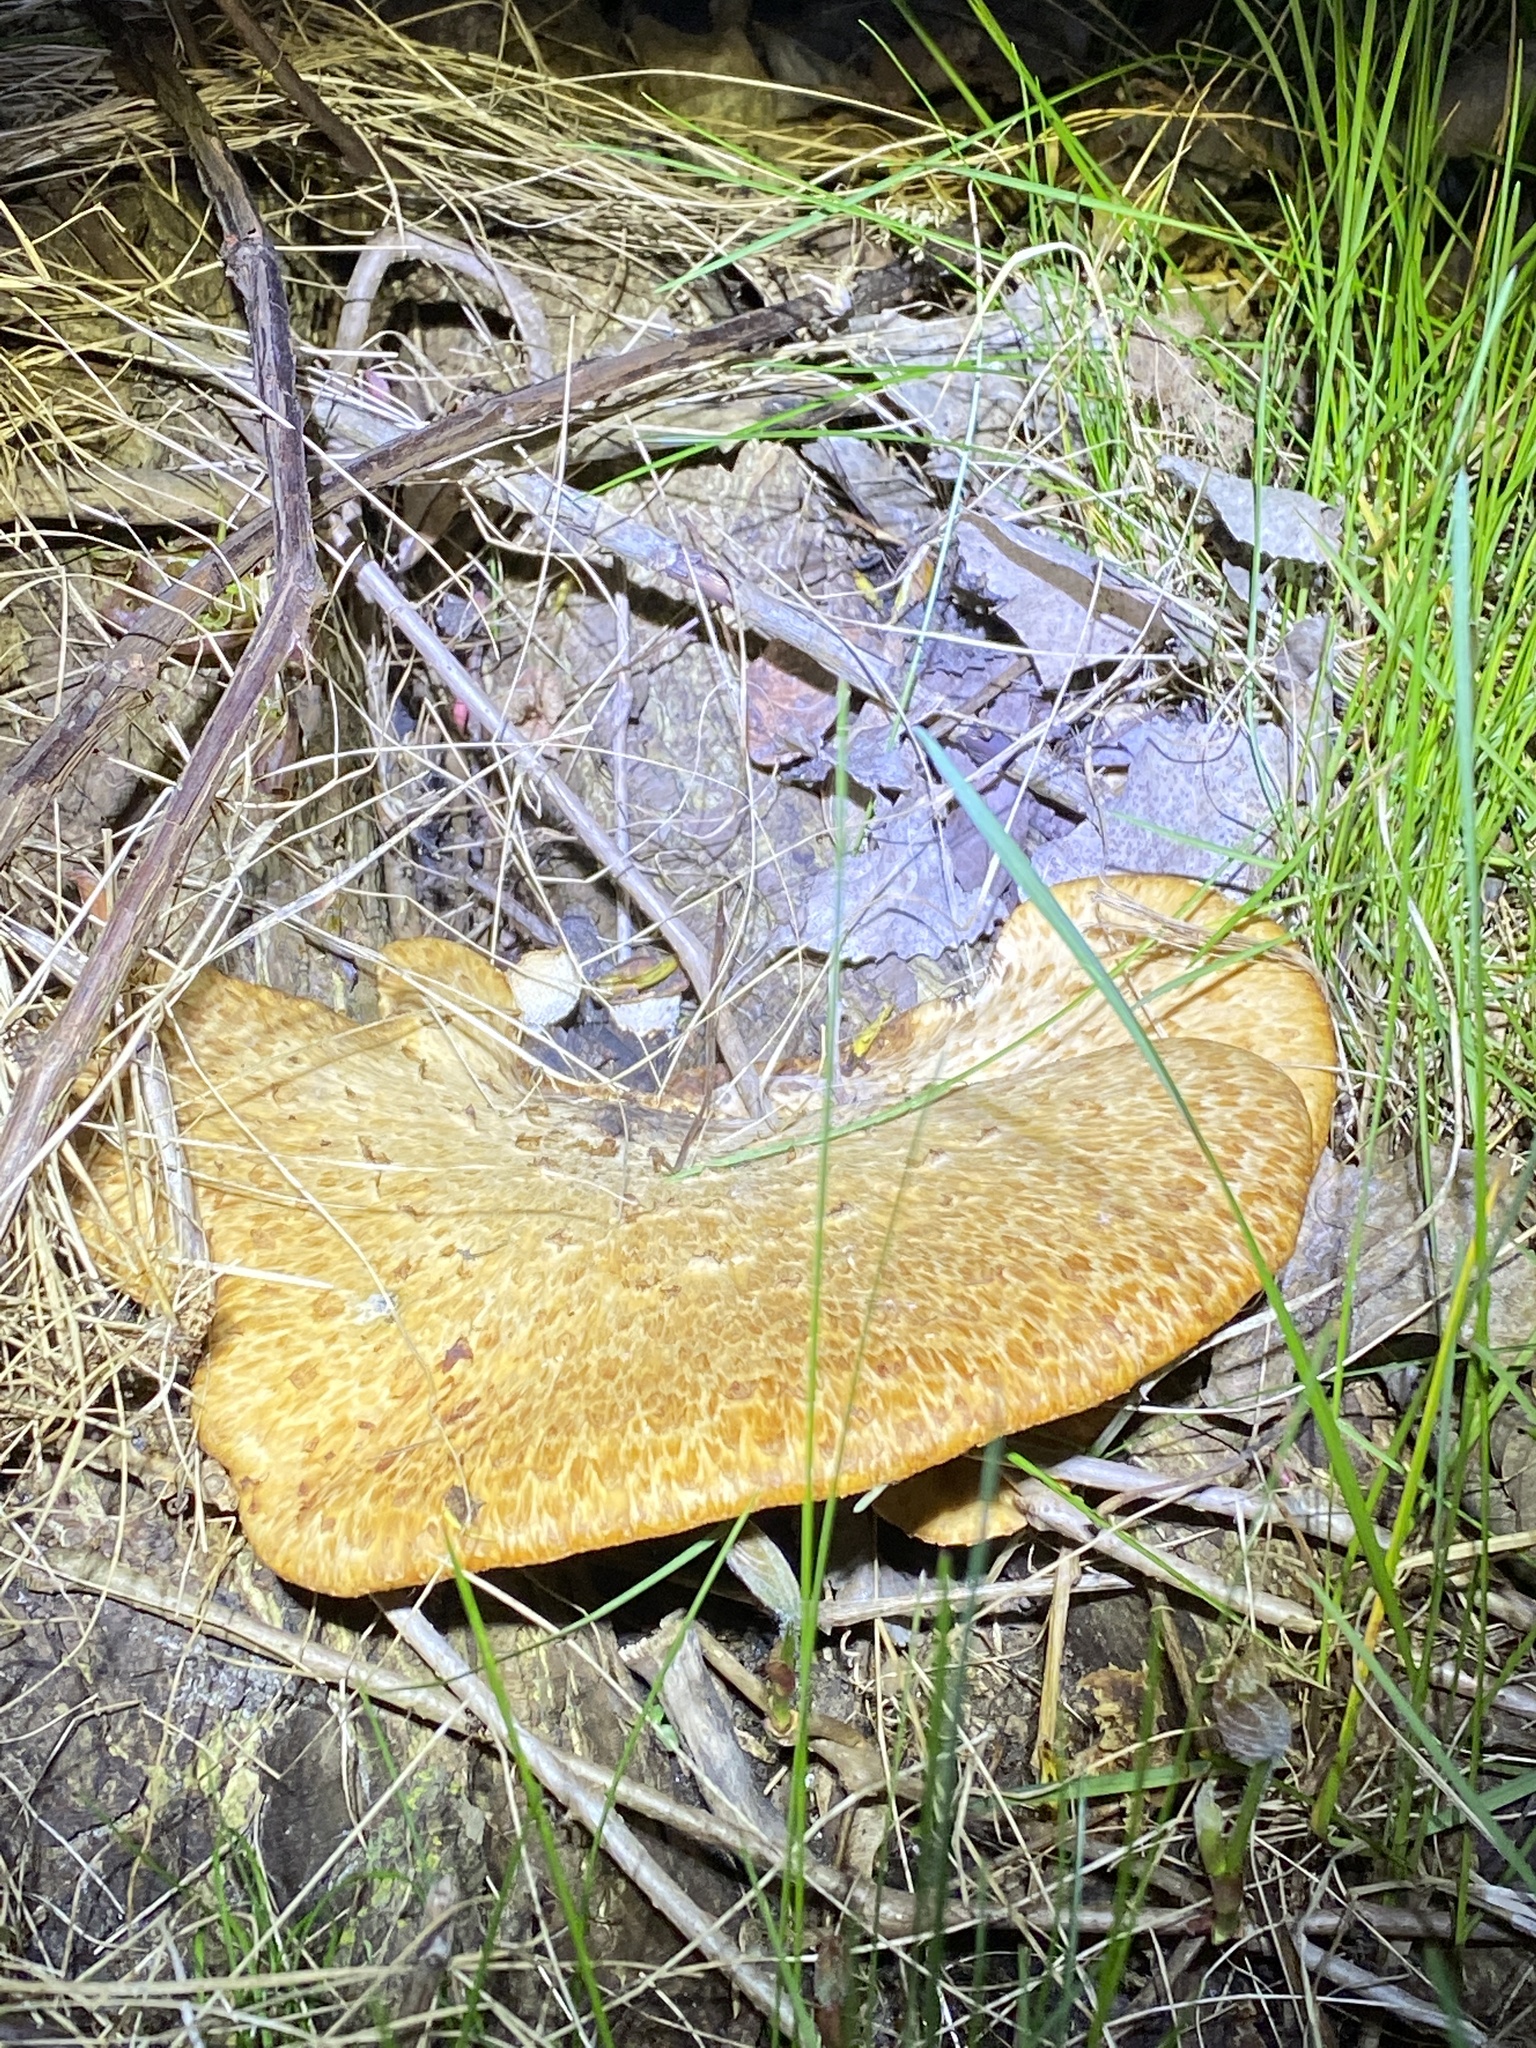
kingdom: Fungi
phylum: Basidiomycota
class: Agaricomycetes
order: Polyporales
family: Polyporaceae
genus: Cerioporus
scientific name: Cerioporus squamosus
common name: Dryad's saddle
